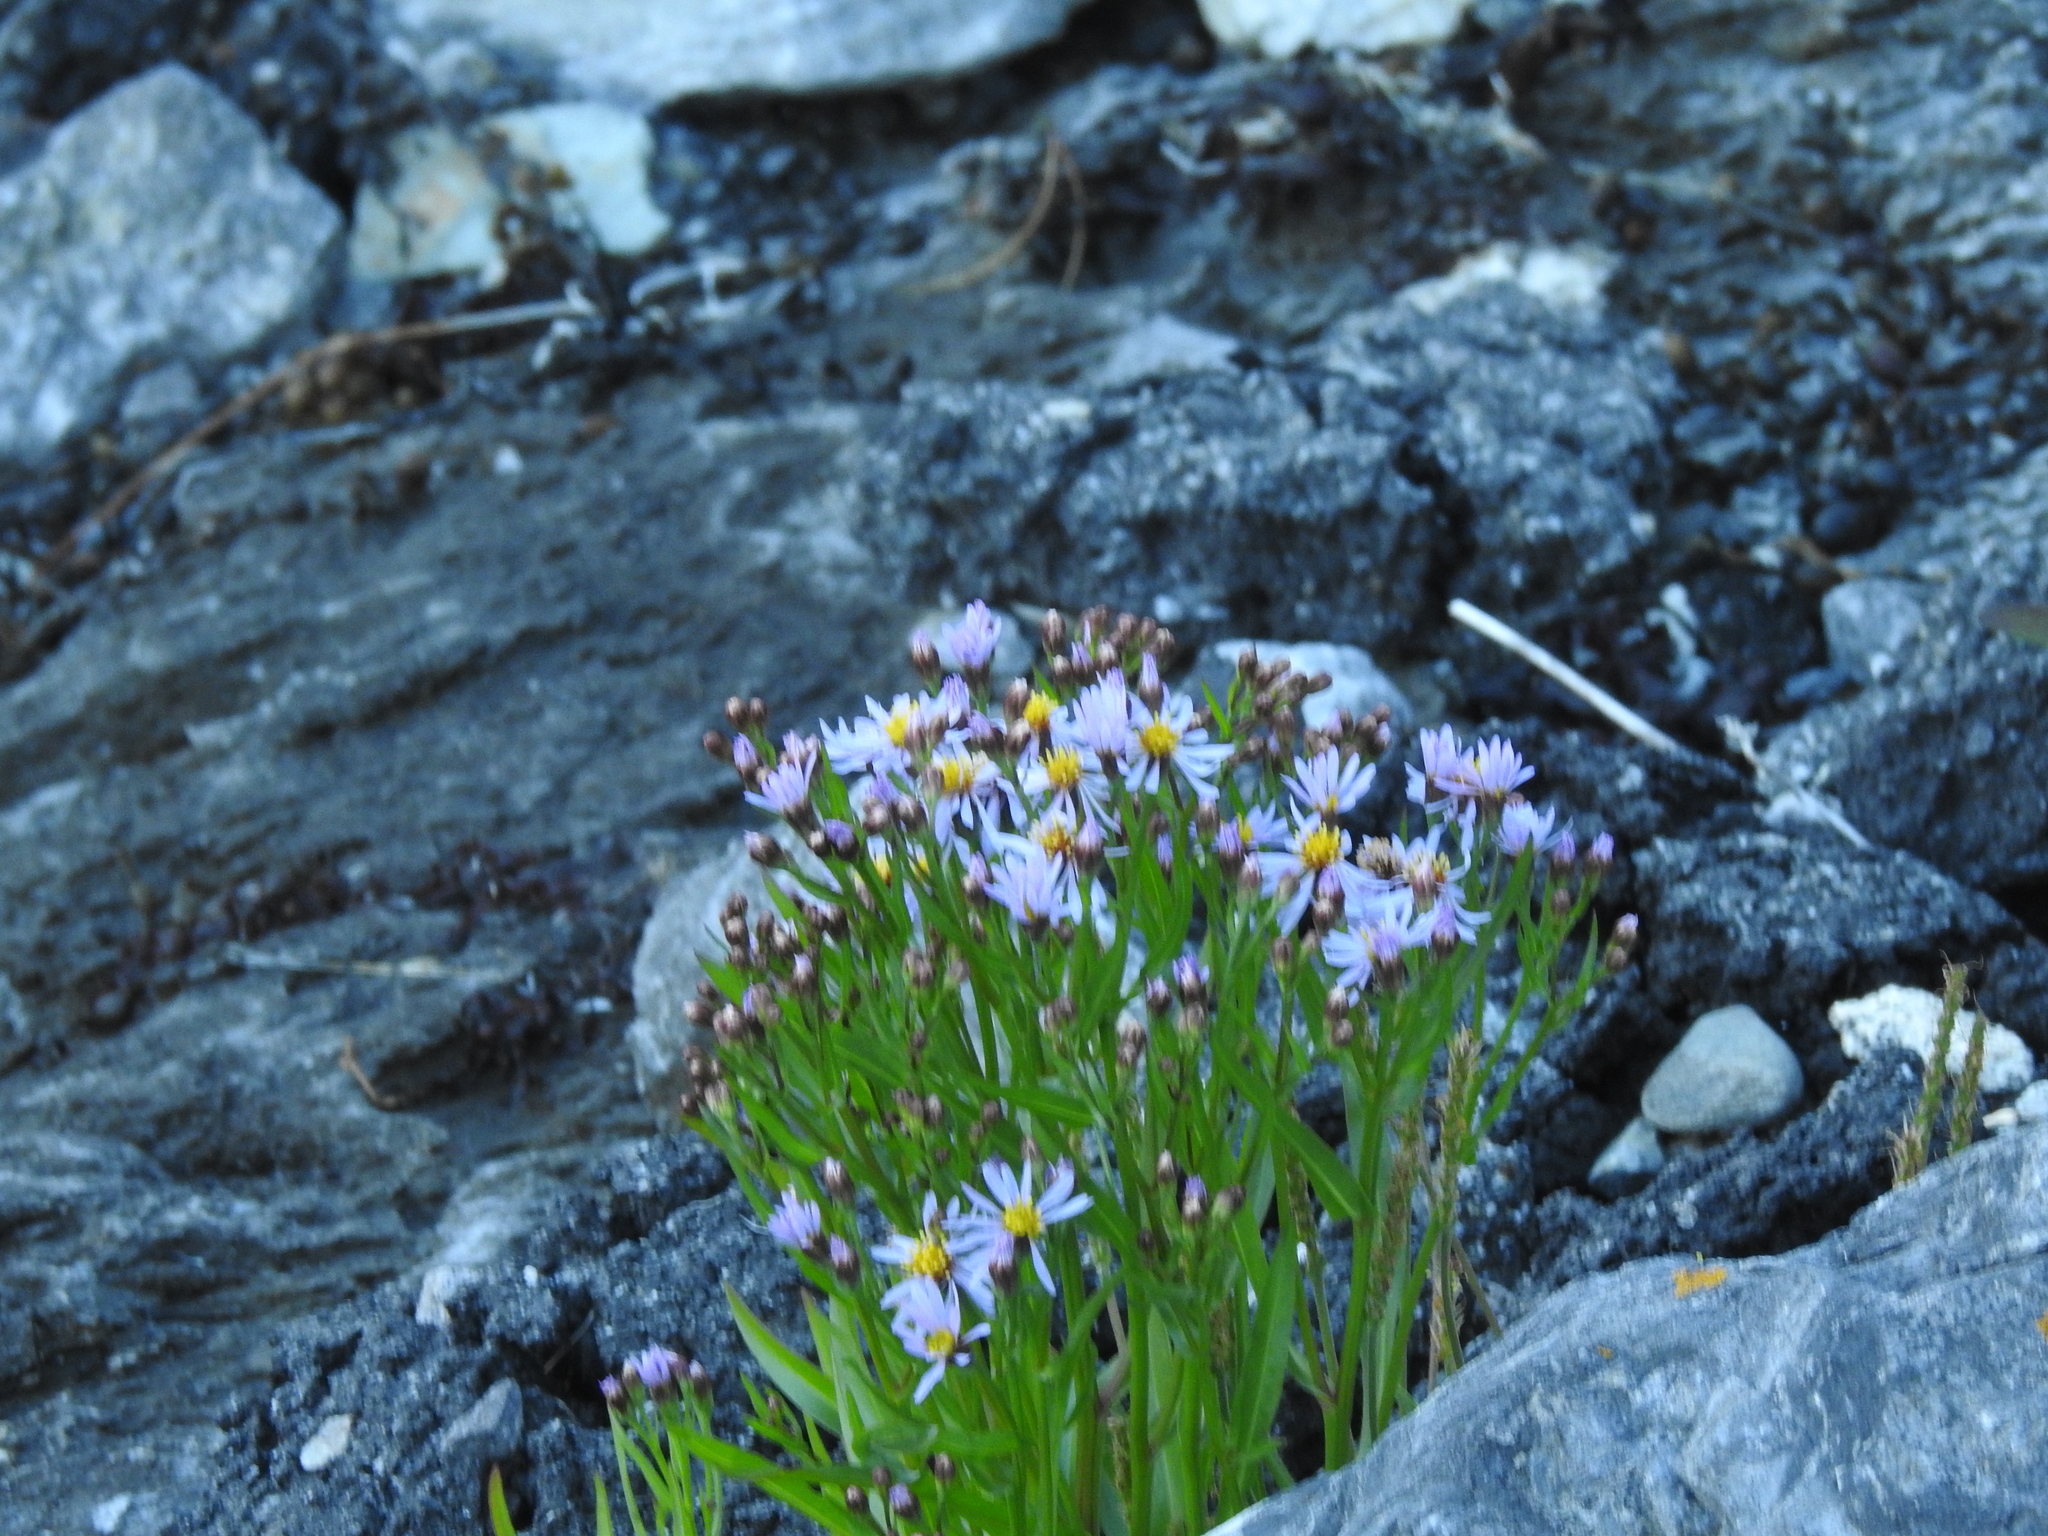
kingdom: Plantae
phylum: Tracheophyta
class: Magnoliopsida
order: Asterales
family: Asteraceae
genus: Tripolium
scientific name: Tripolium pannonicum
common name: Sea aster
